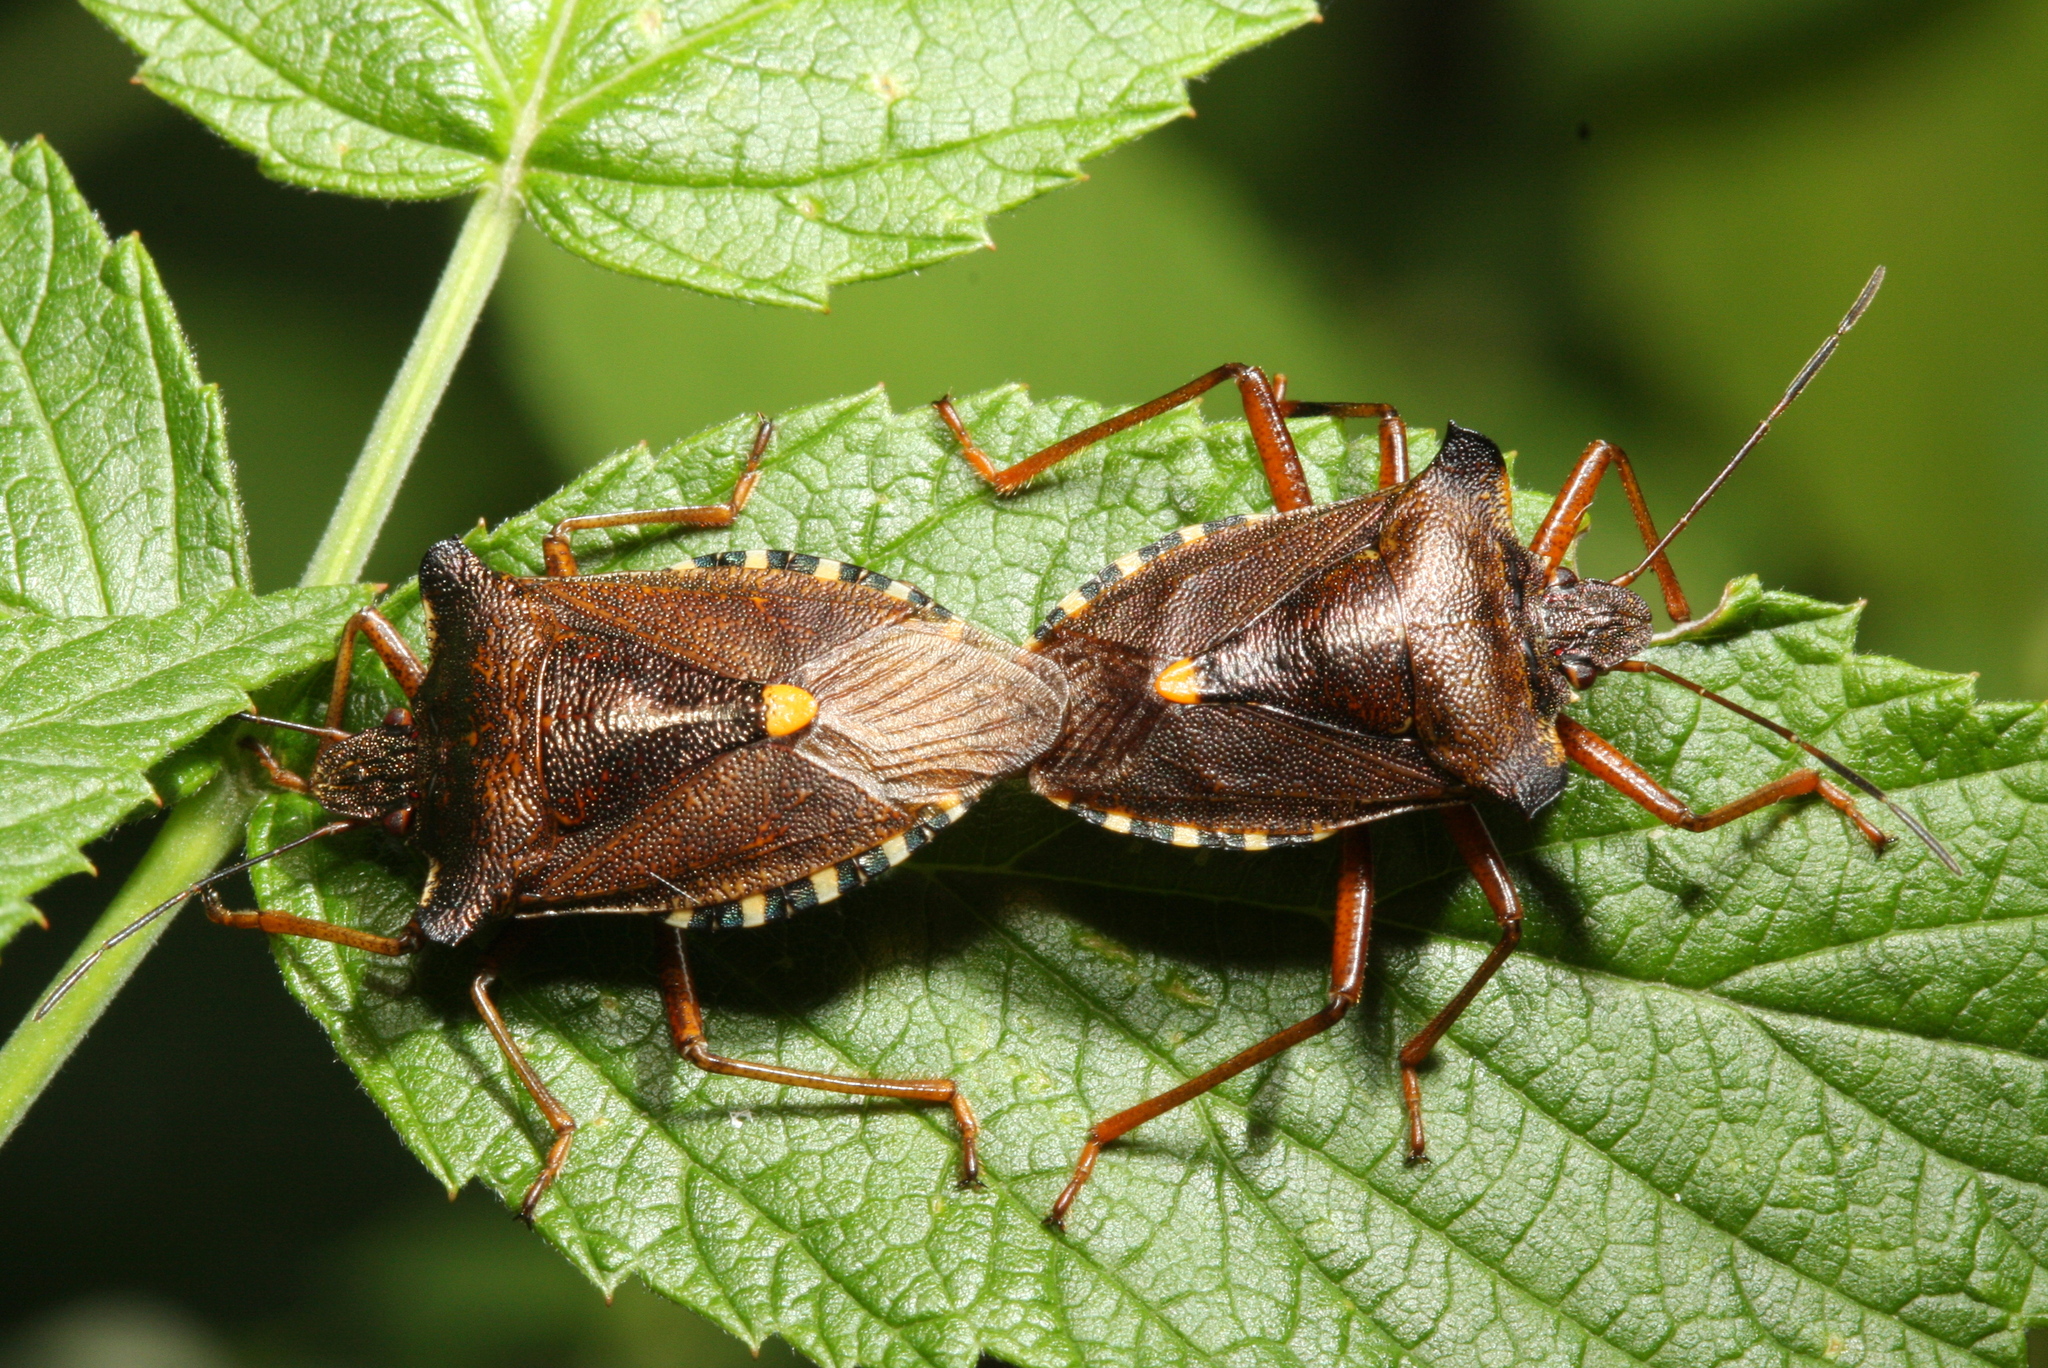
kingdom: Animalia
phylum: Arthropoda
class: Insecta
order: Hemiptera
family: Pentatomidae
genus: Pentatoma
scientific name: Pentatoma rufipes
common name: Forest bug
